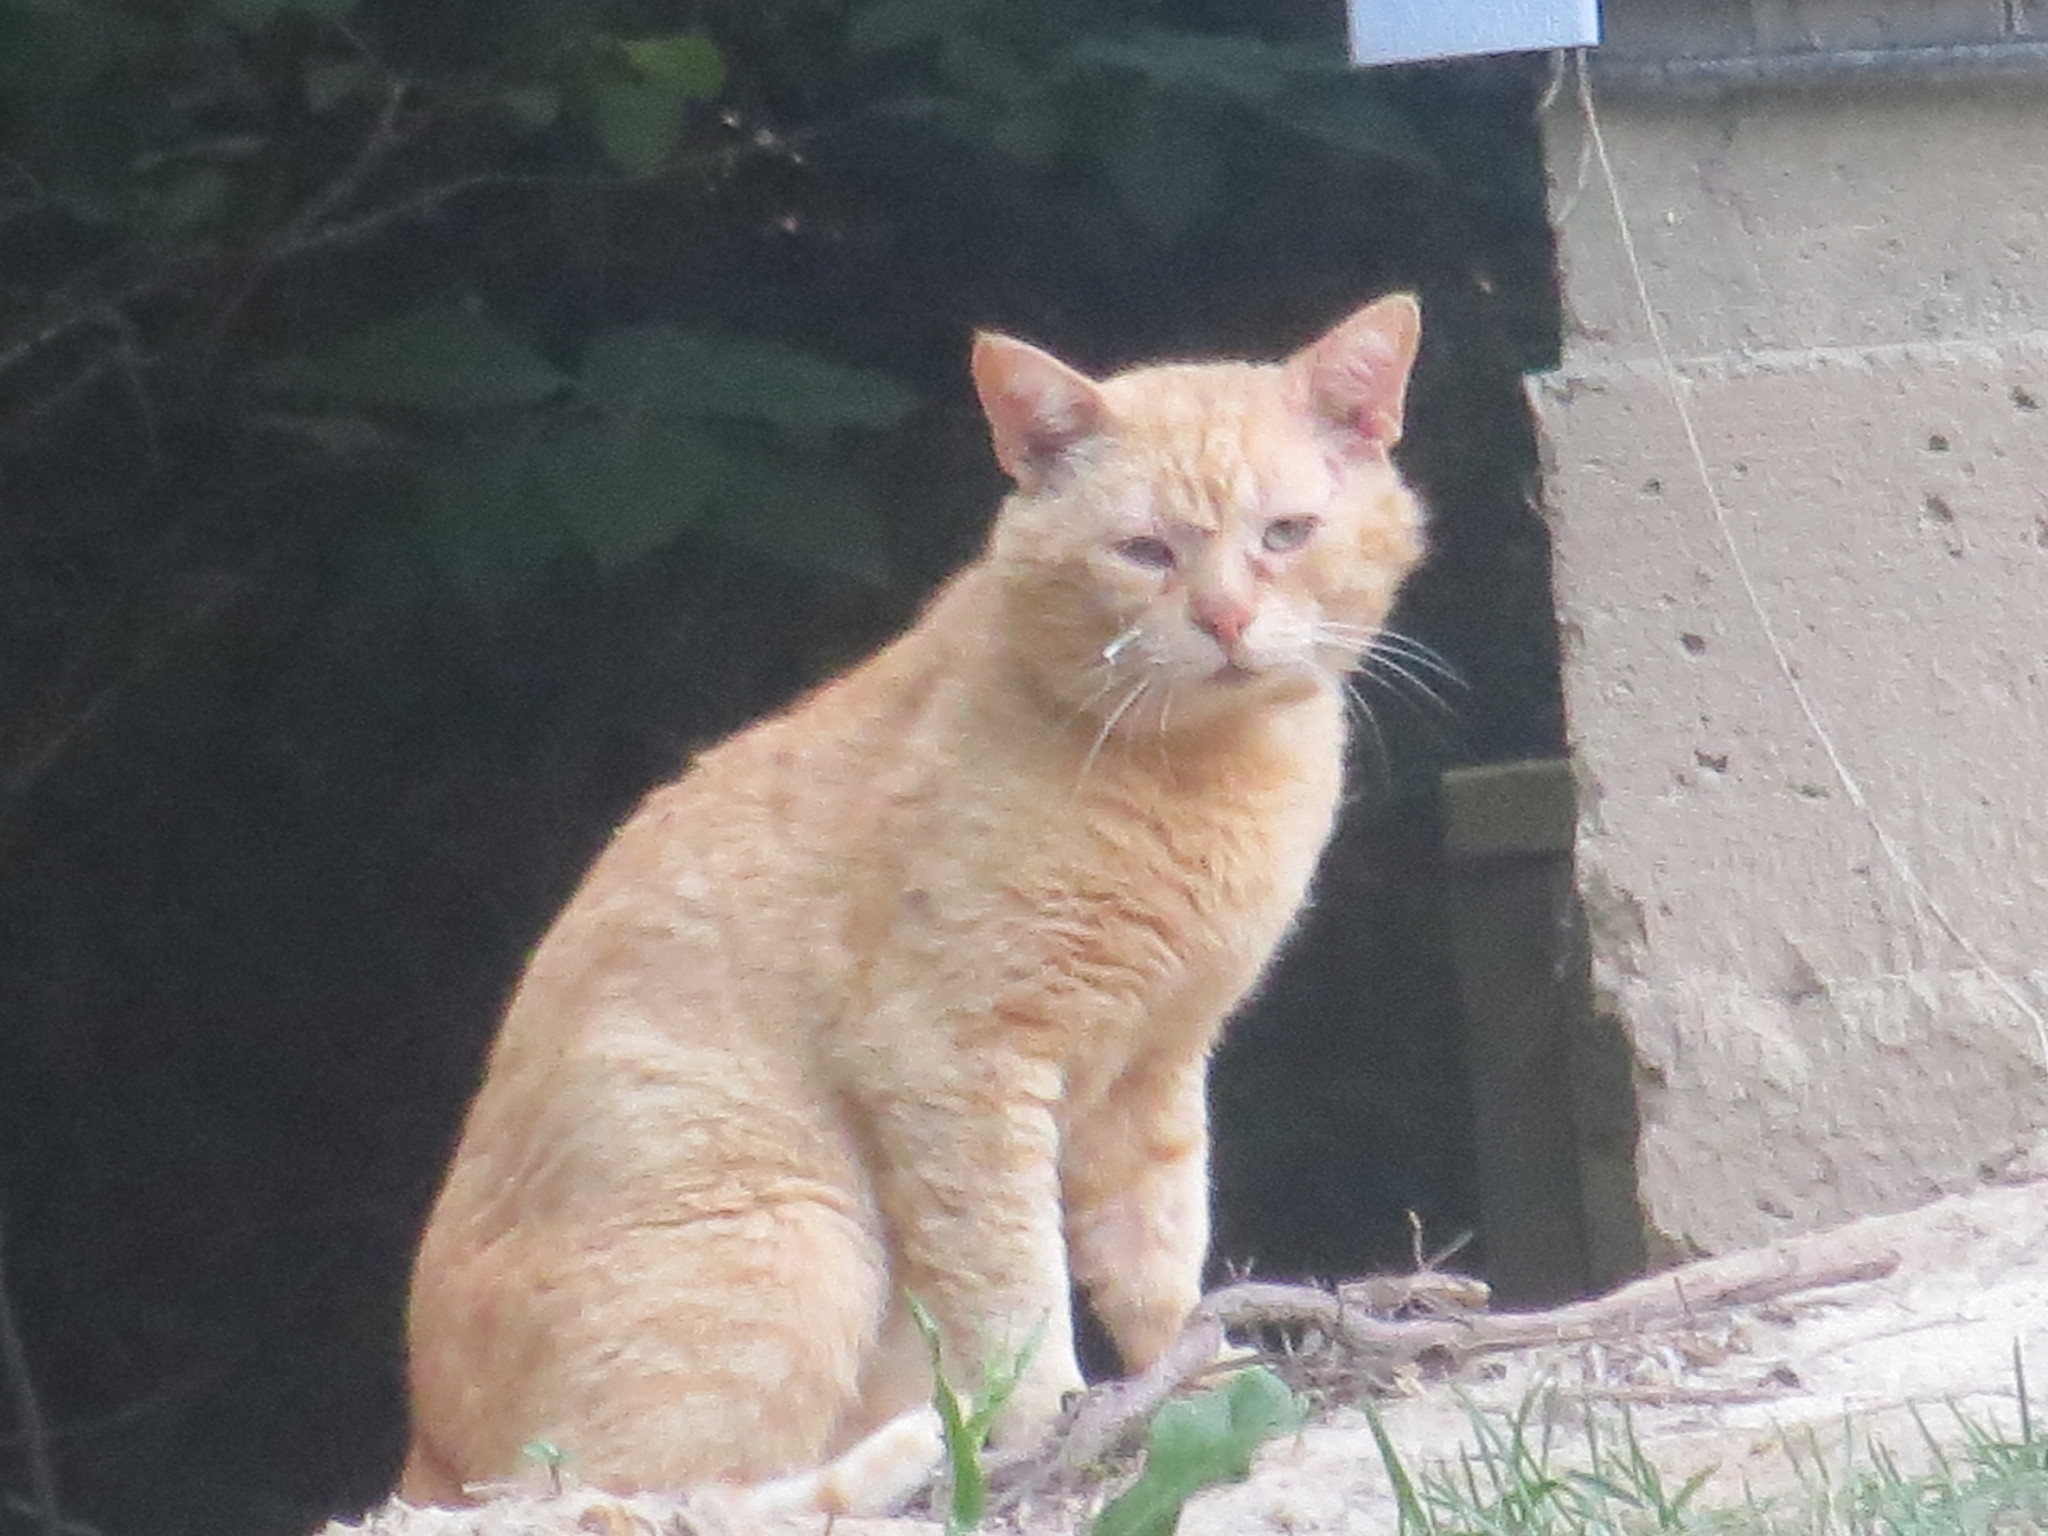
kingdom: Animalia
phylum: Chordata
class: Mammalia
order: Carnivora
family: Felidae
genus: Felis
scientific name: Felis catus
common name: Domestic cat
